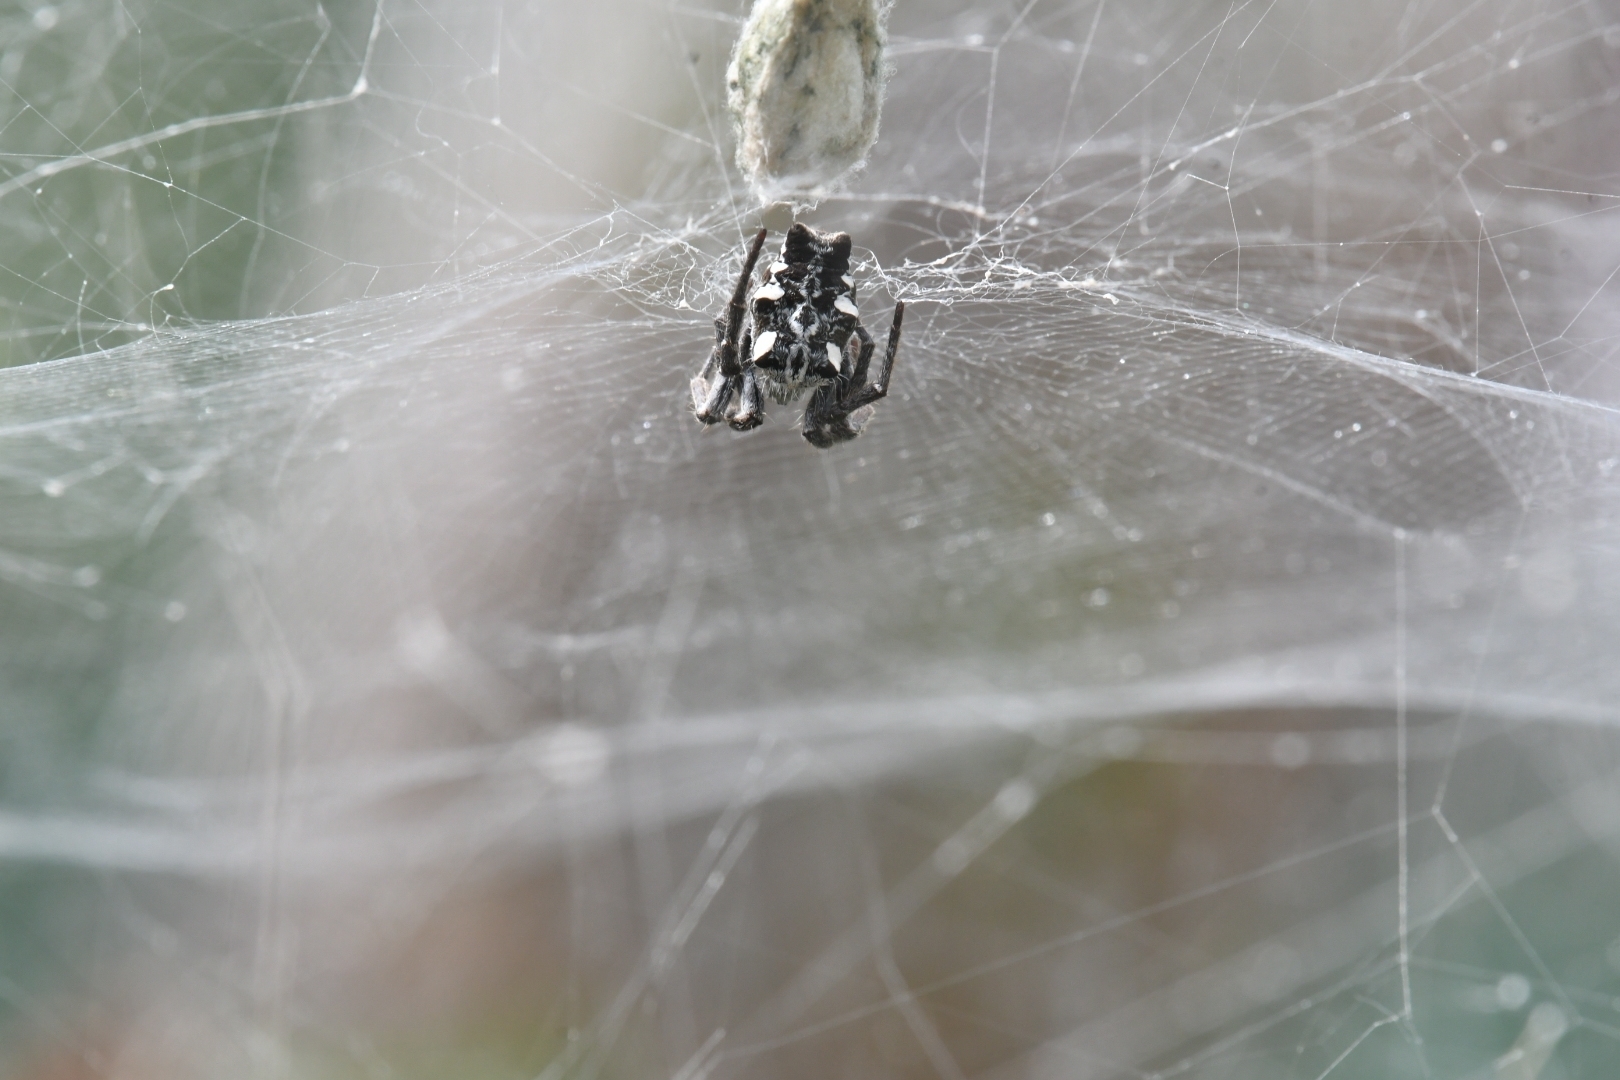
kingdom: Animalia
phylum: Arthropoda
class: Arachnida
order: Araneae
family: Araneidae
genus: Cyrtophora
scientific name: Cyrtophora citricola
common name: Orb weavers
